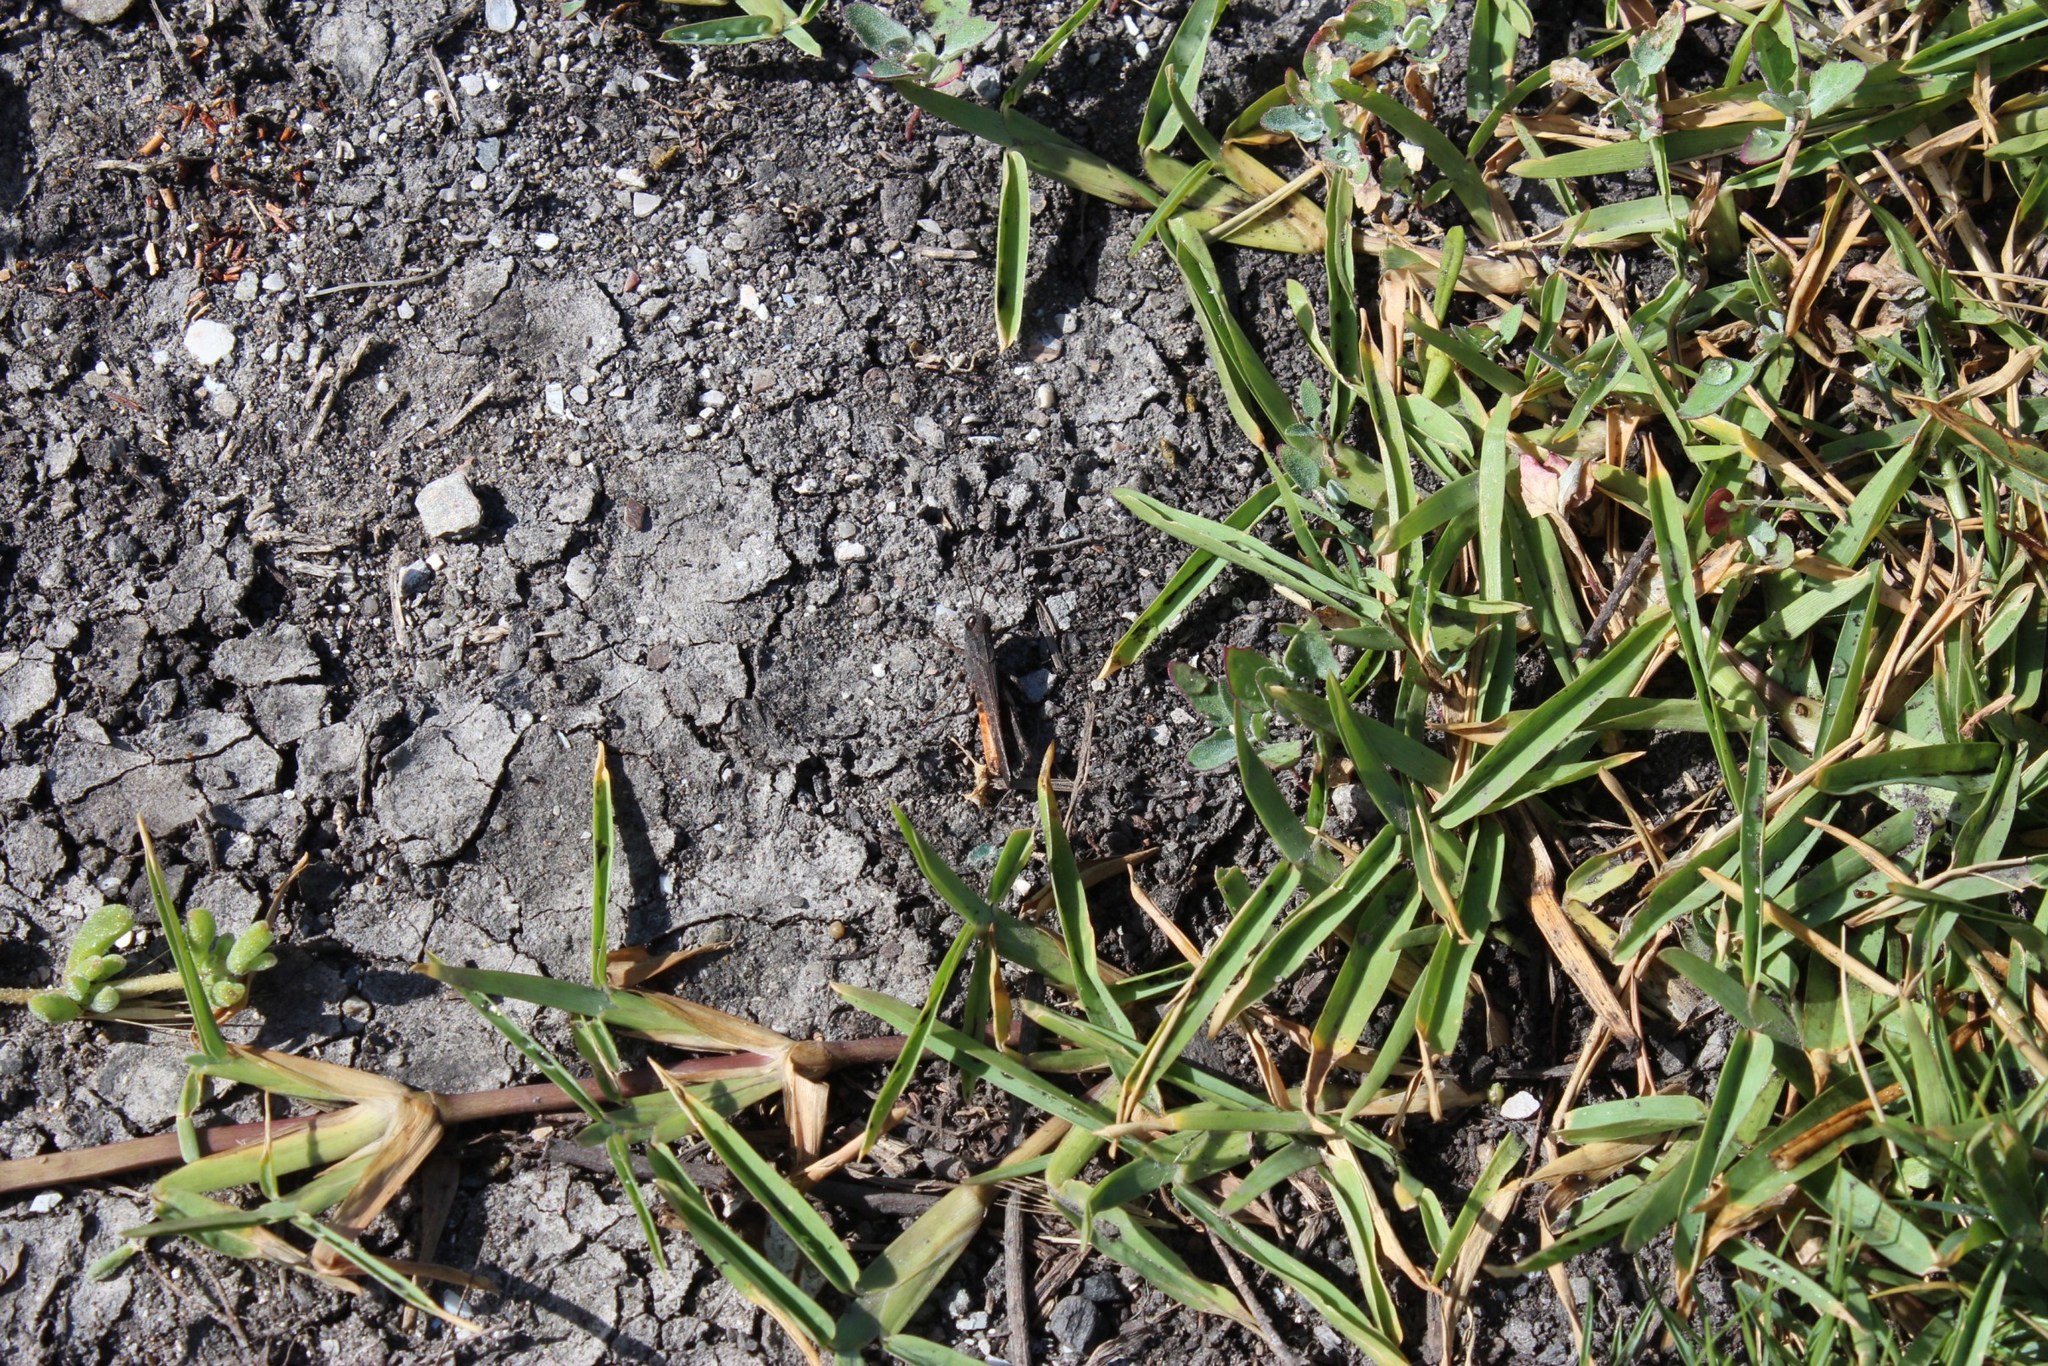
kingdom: Plantae
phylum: Tracheophyta
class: Liliopsida
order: Poales
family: Poaceae
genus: Stenotaphrum
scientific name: Stenotaphrum secundatum
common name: St. augustine grass
